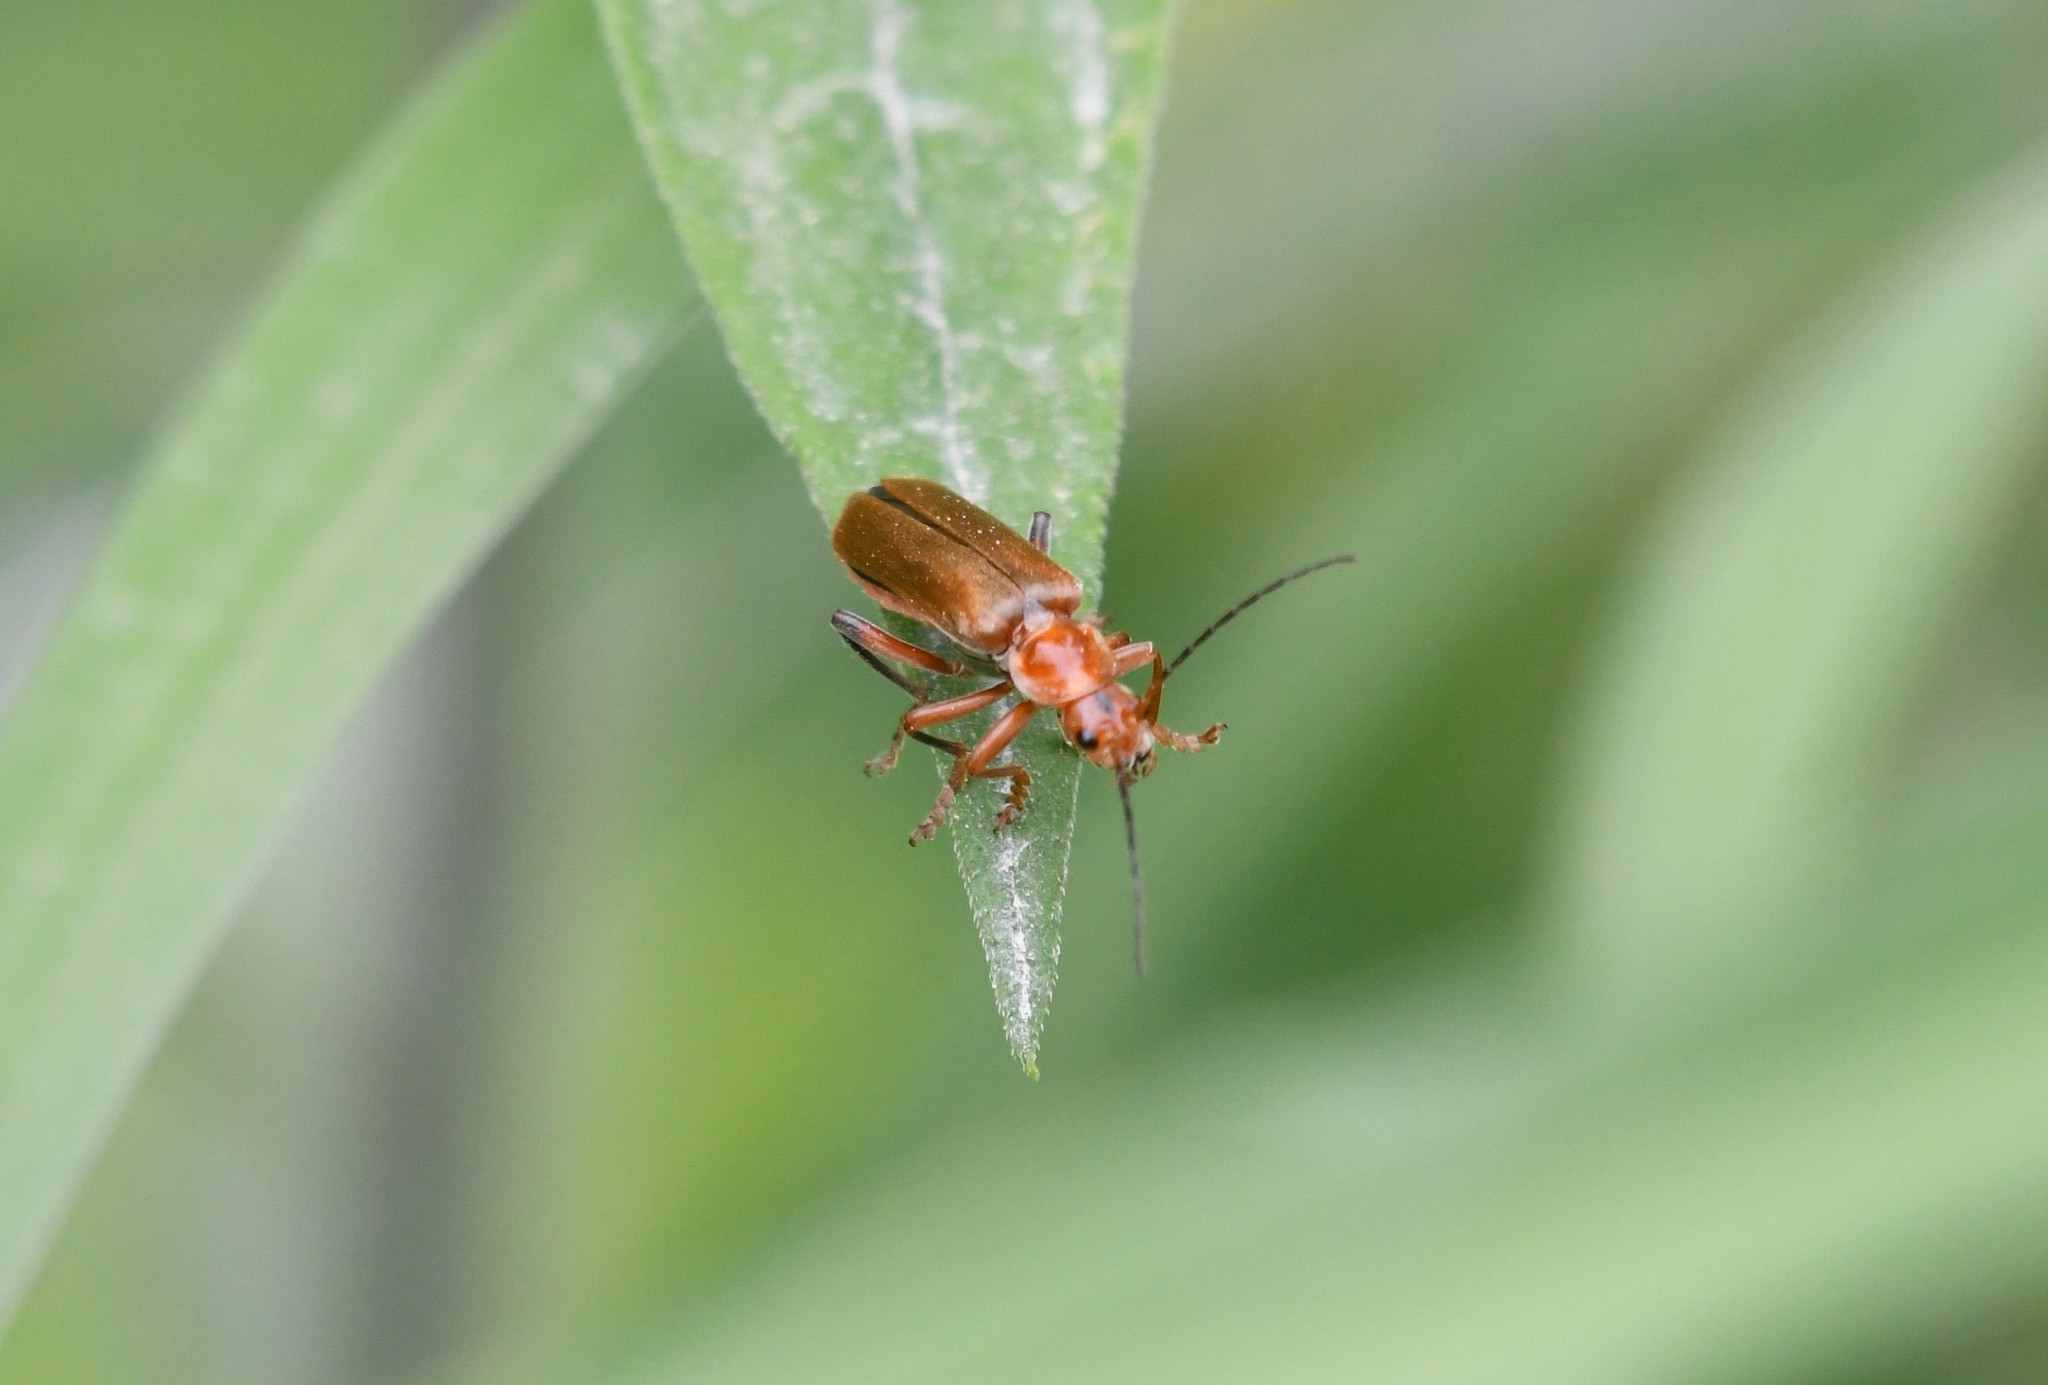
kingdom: Animalia
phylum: Arthropoda
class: Insecta
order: Coleoptera
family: Cantharidae
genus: Cantharis
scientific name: Cantharis livida
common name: Livid soldier beetle
